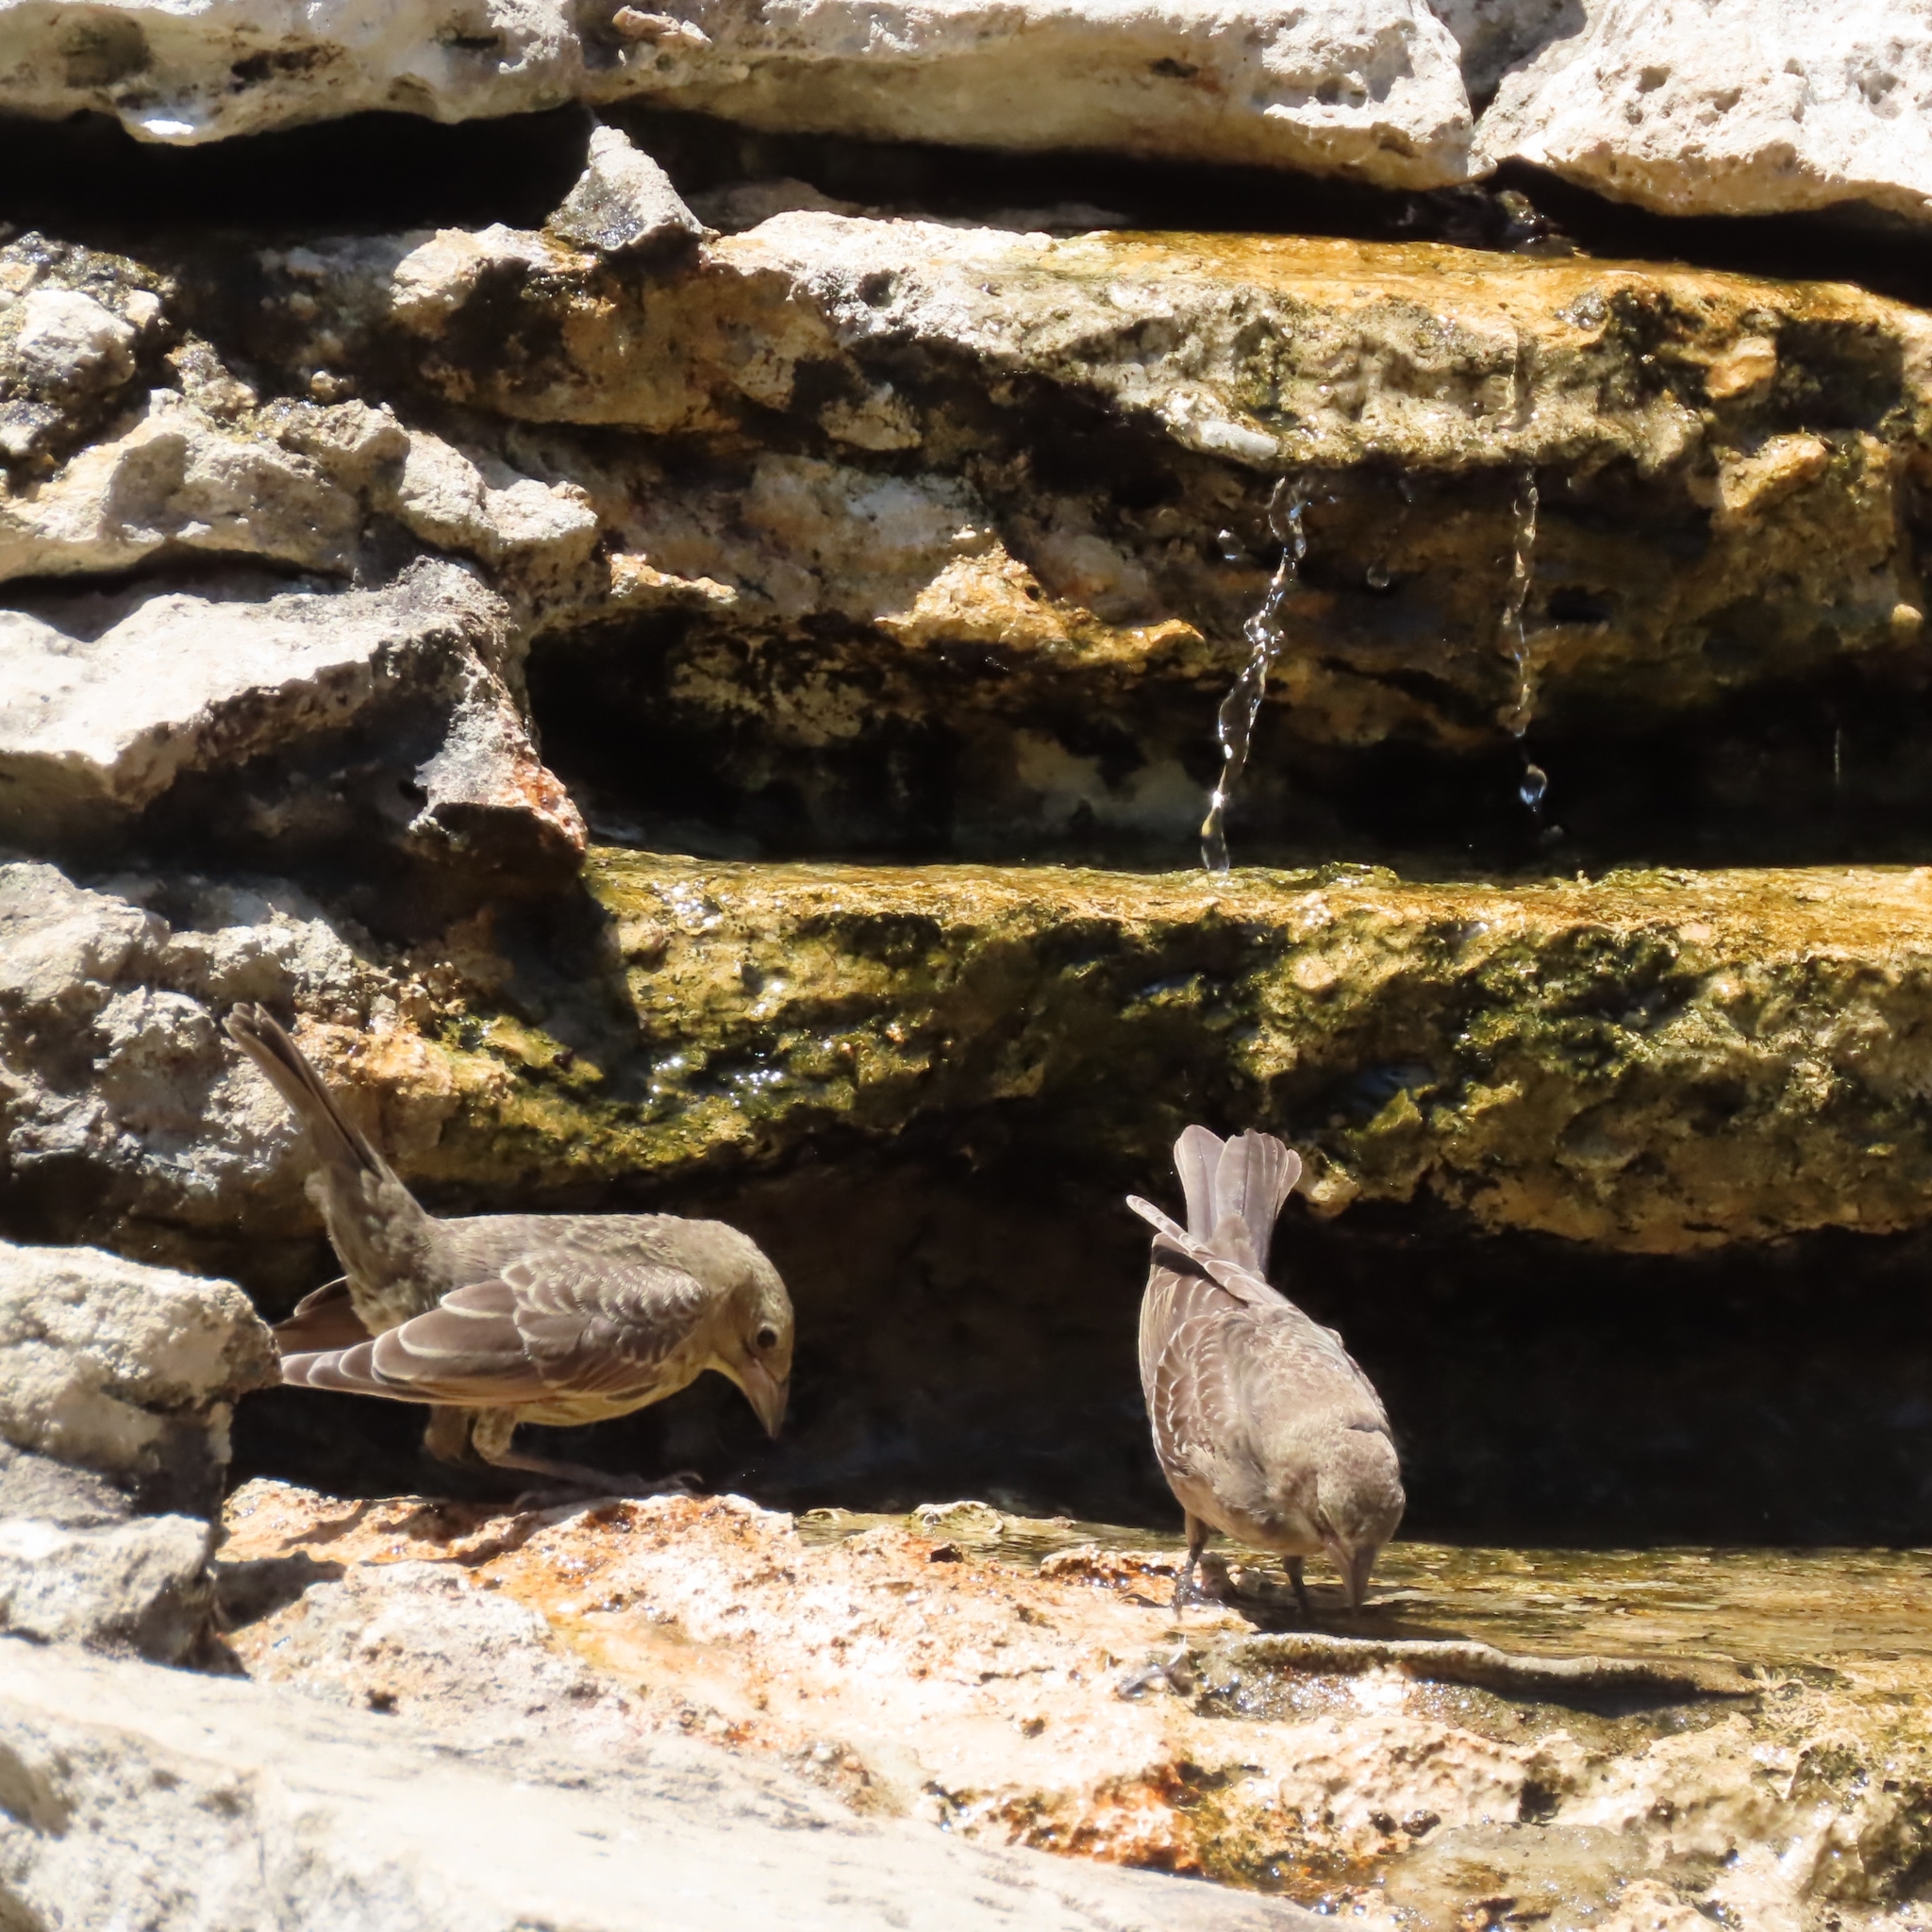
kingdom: Animalia
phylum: Chordata
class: Aves
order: Passeriformes
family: Icteridae
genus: Molothrus
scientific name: Molothrus ater
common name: Brown-headed cowbird
